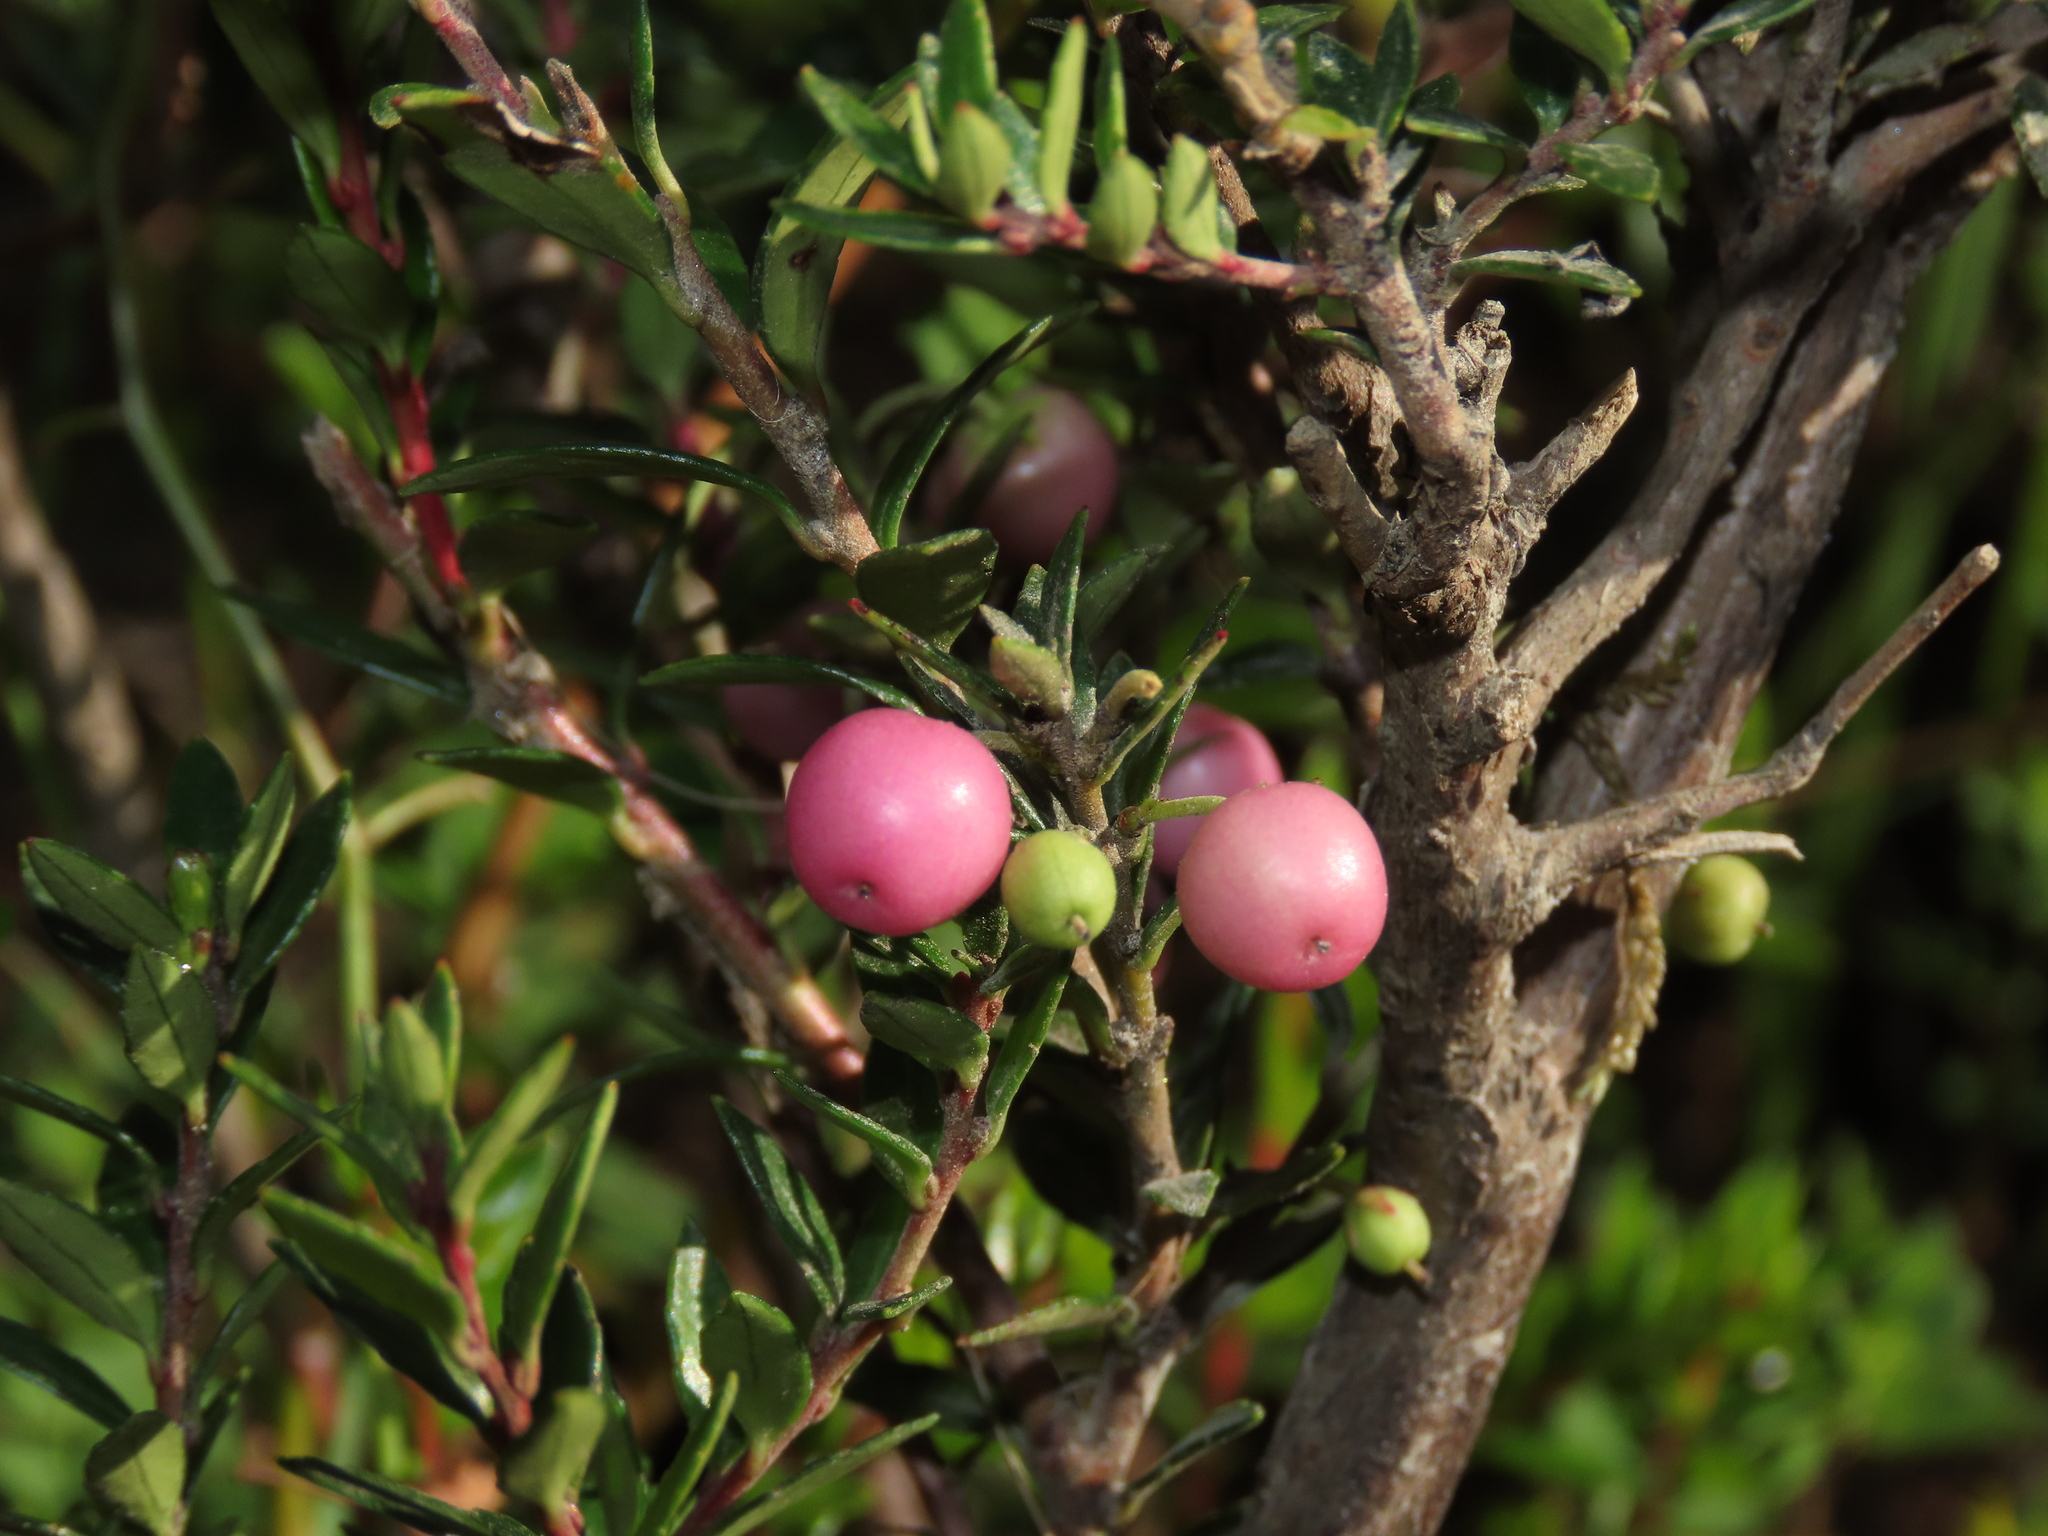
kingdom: Plantae
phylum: Tracheophyta
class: Magnoliopsida
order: Ericales
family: Ericaceae
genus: Gaultheria
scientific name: Gaultheria poeppigii
